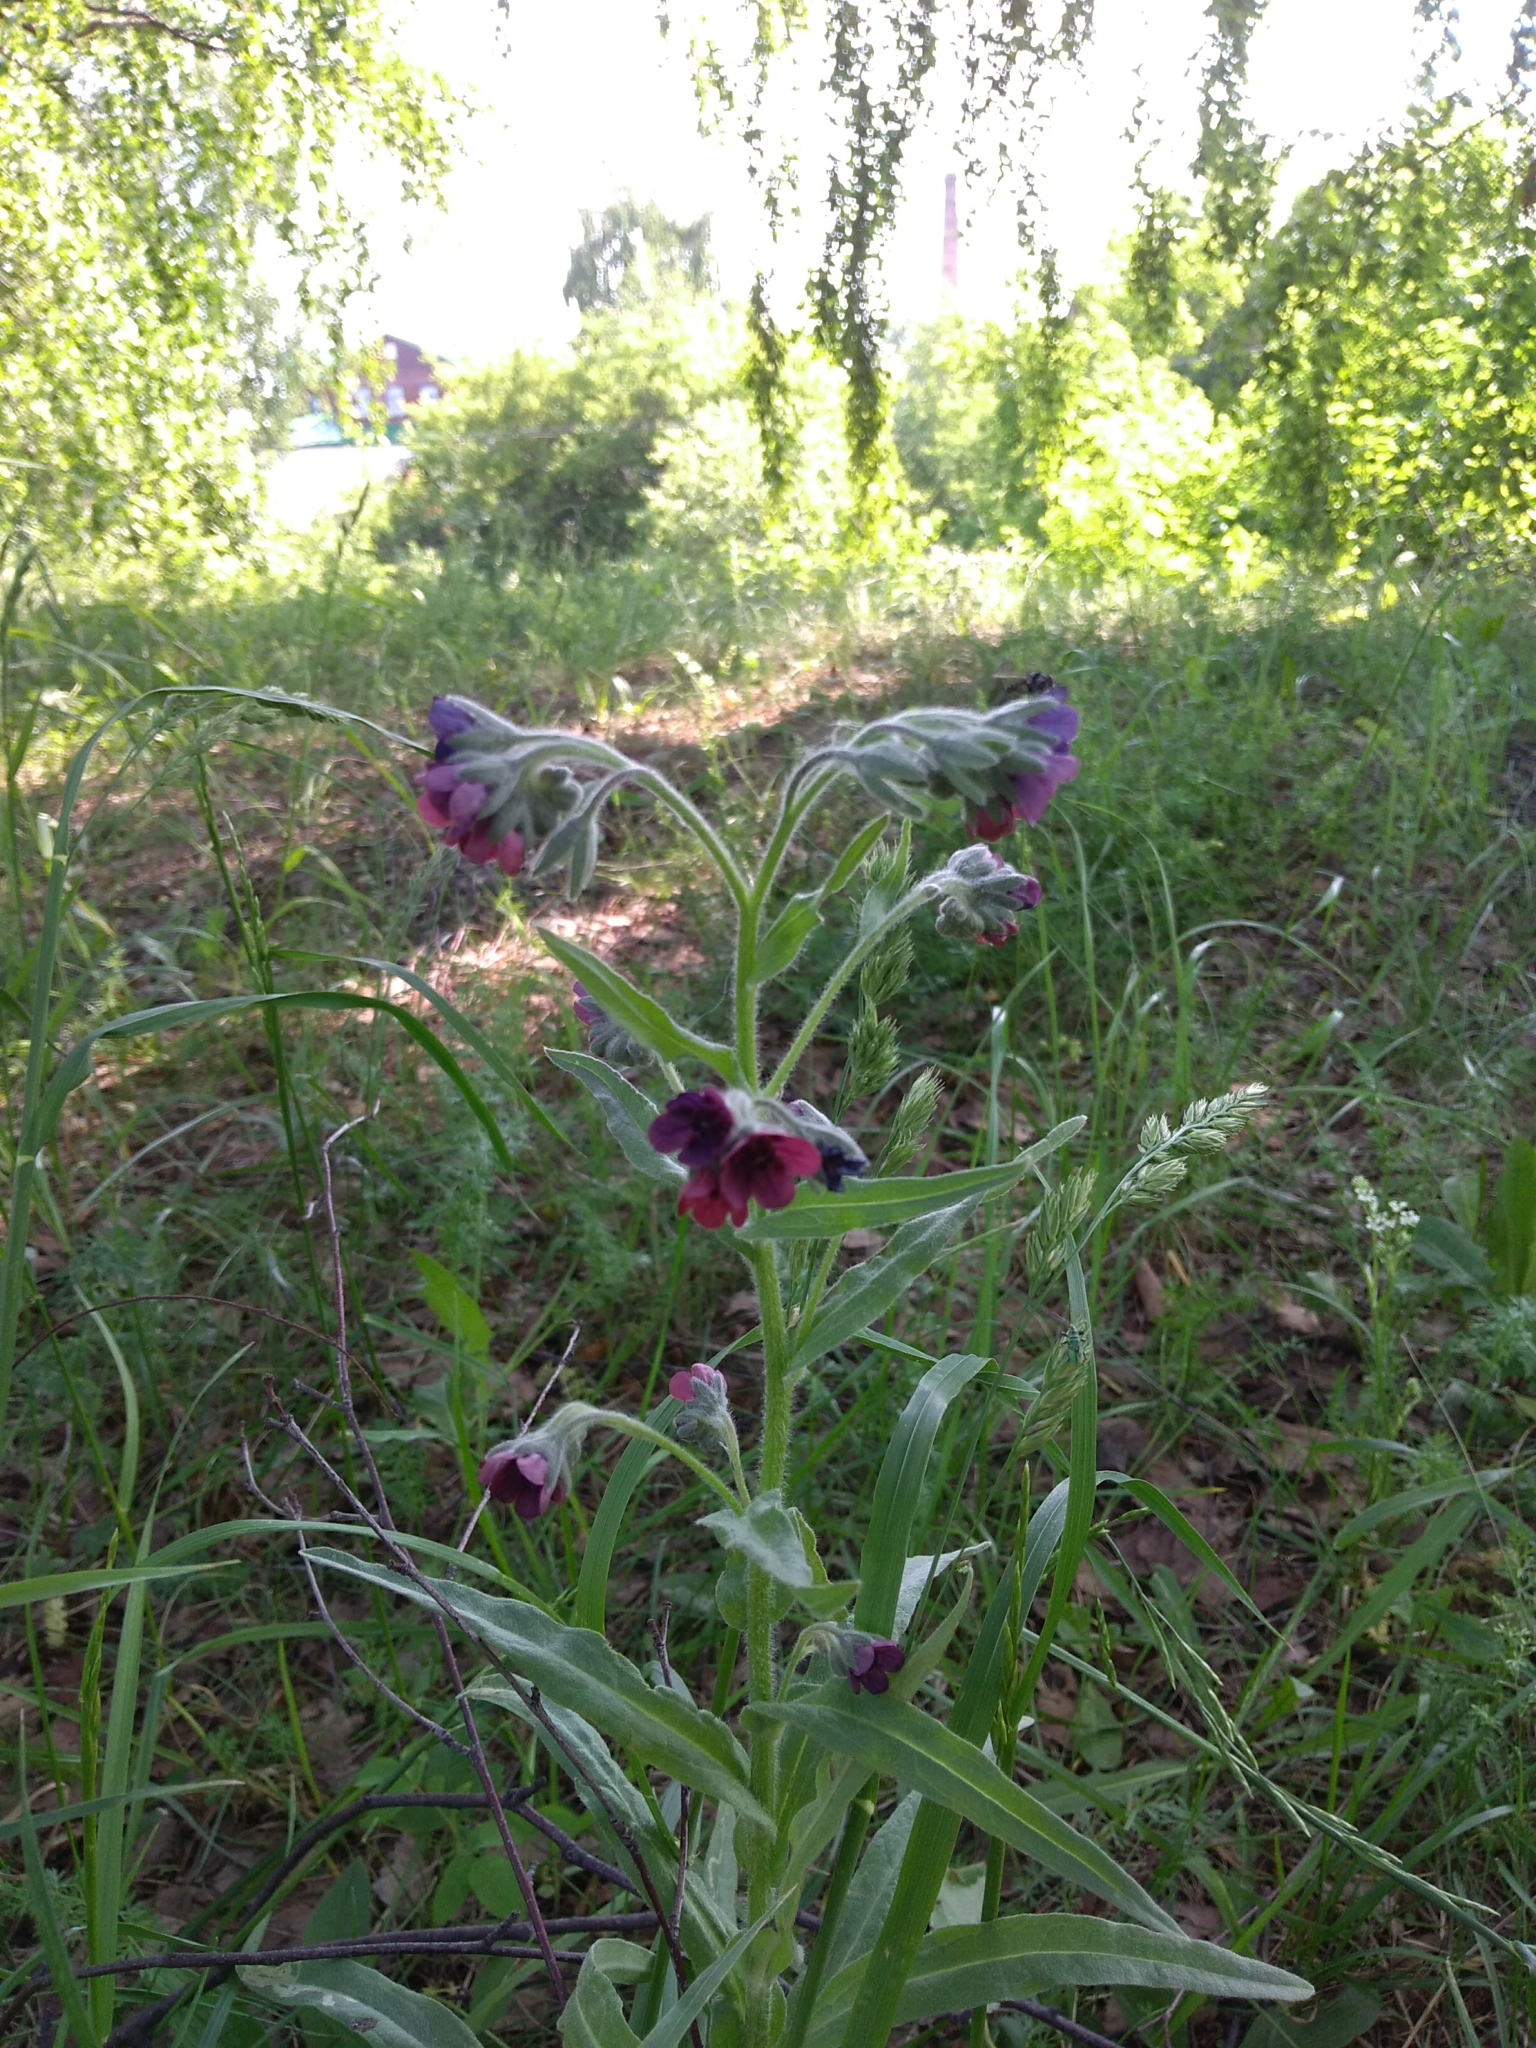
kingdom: Plantae
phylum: Tracheophyta
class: Magnoliopsida
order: Boraginales
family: Boraginaceae
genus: Cynoglossum
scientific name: Cynoglossum officinale
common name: Hound's-tongue
